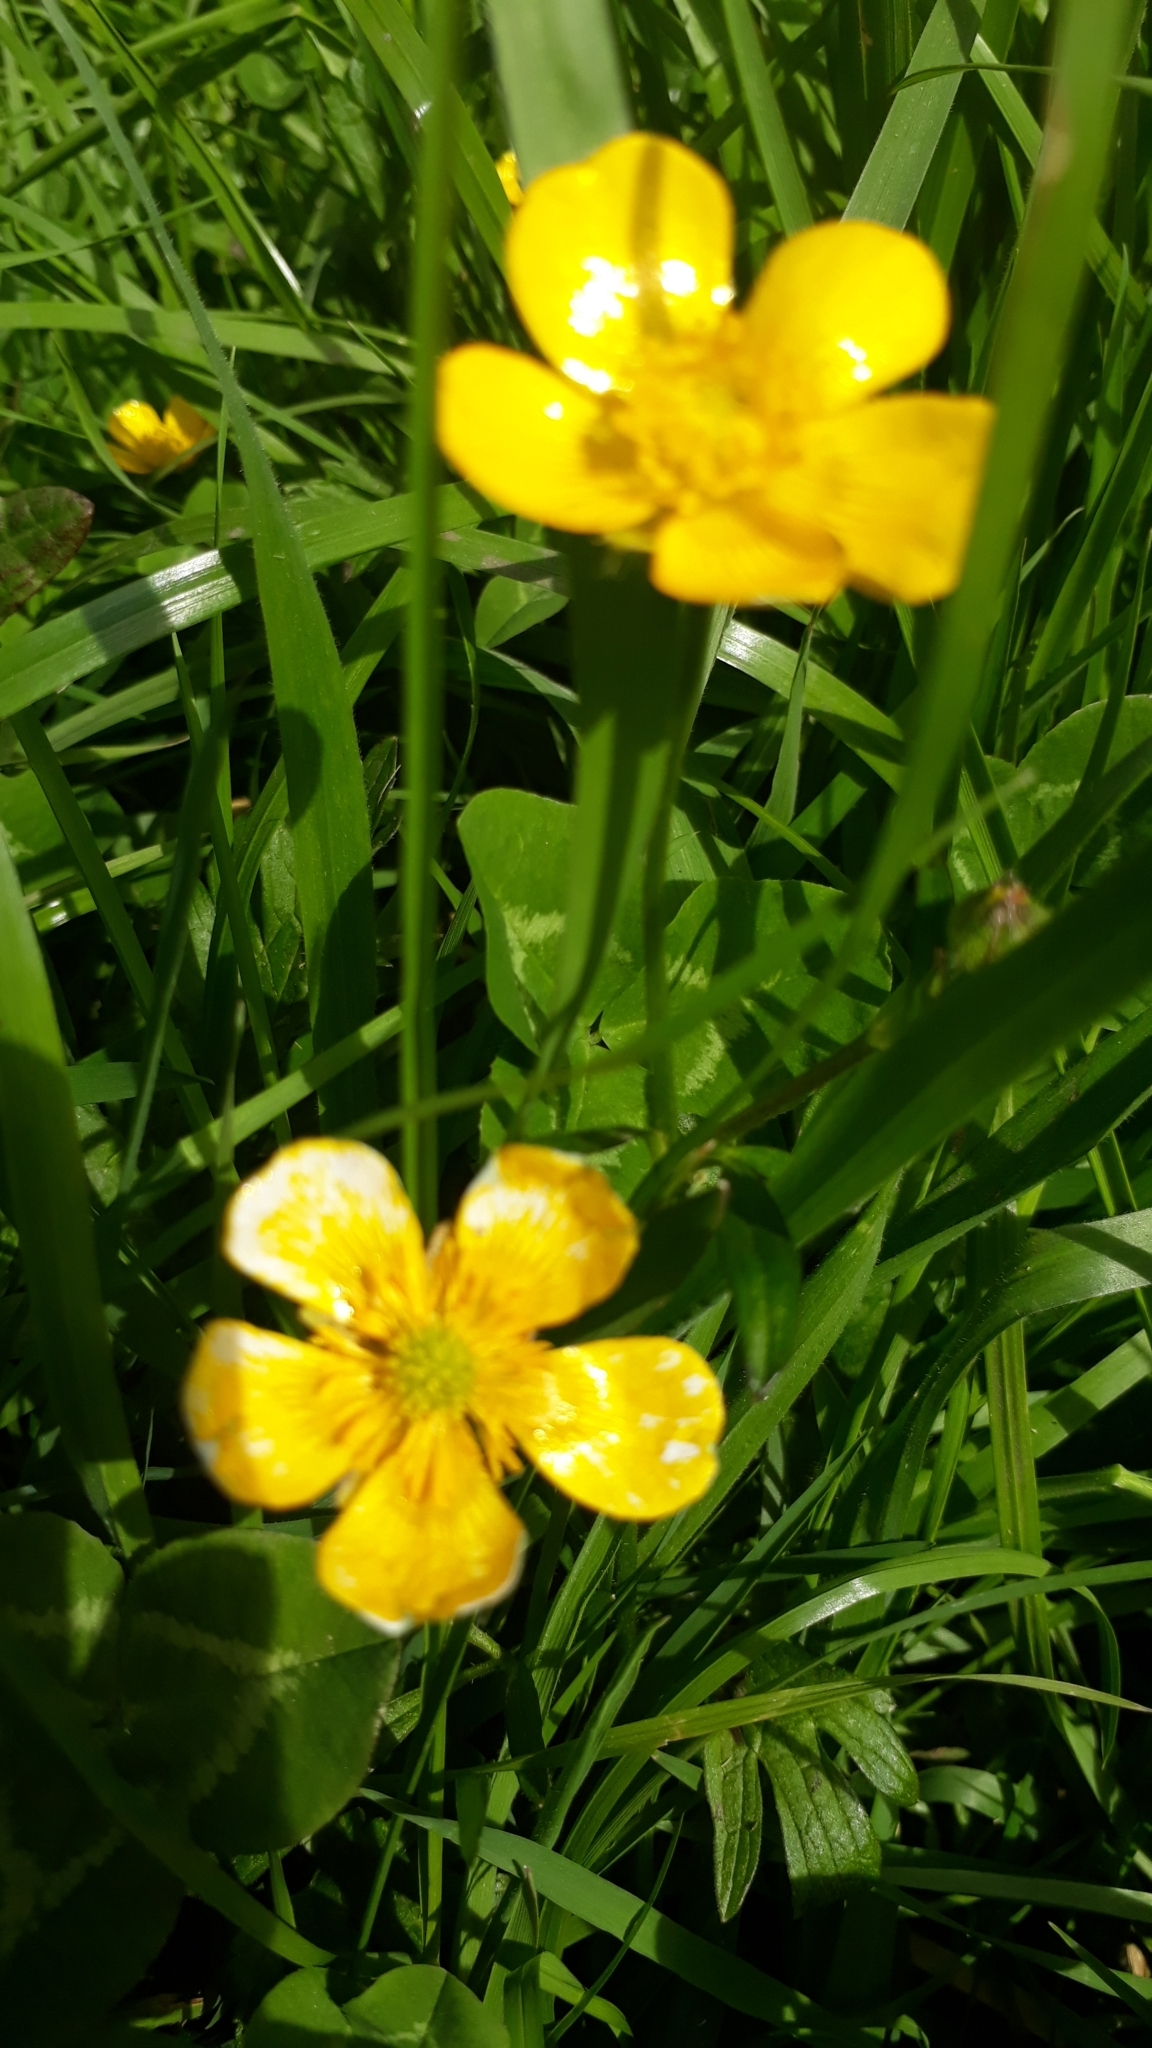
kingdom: Plantae
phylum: Tracheophyta
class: Magnoliopsida
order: Ranunculales
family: Ranunculaceae
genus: Ranunculus
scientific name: Ranunculus repens
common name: Creeping buttercup
